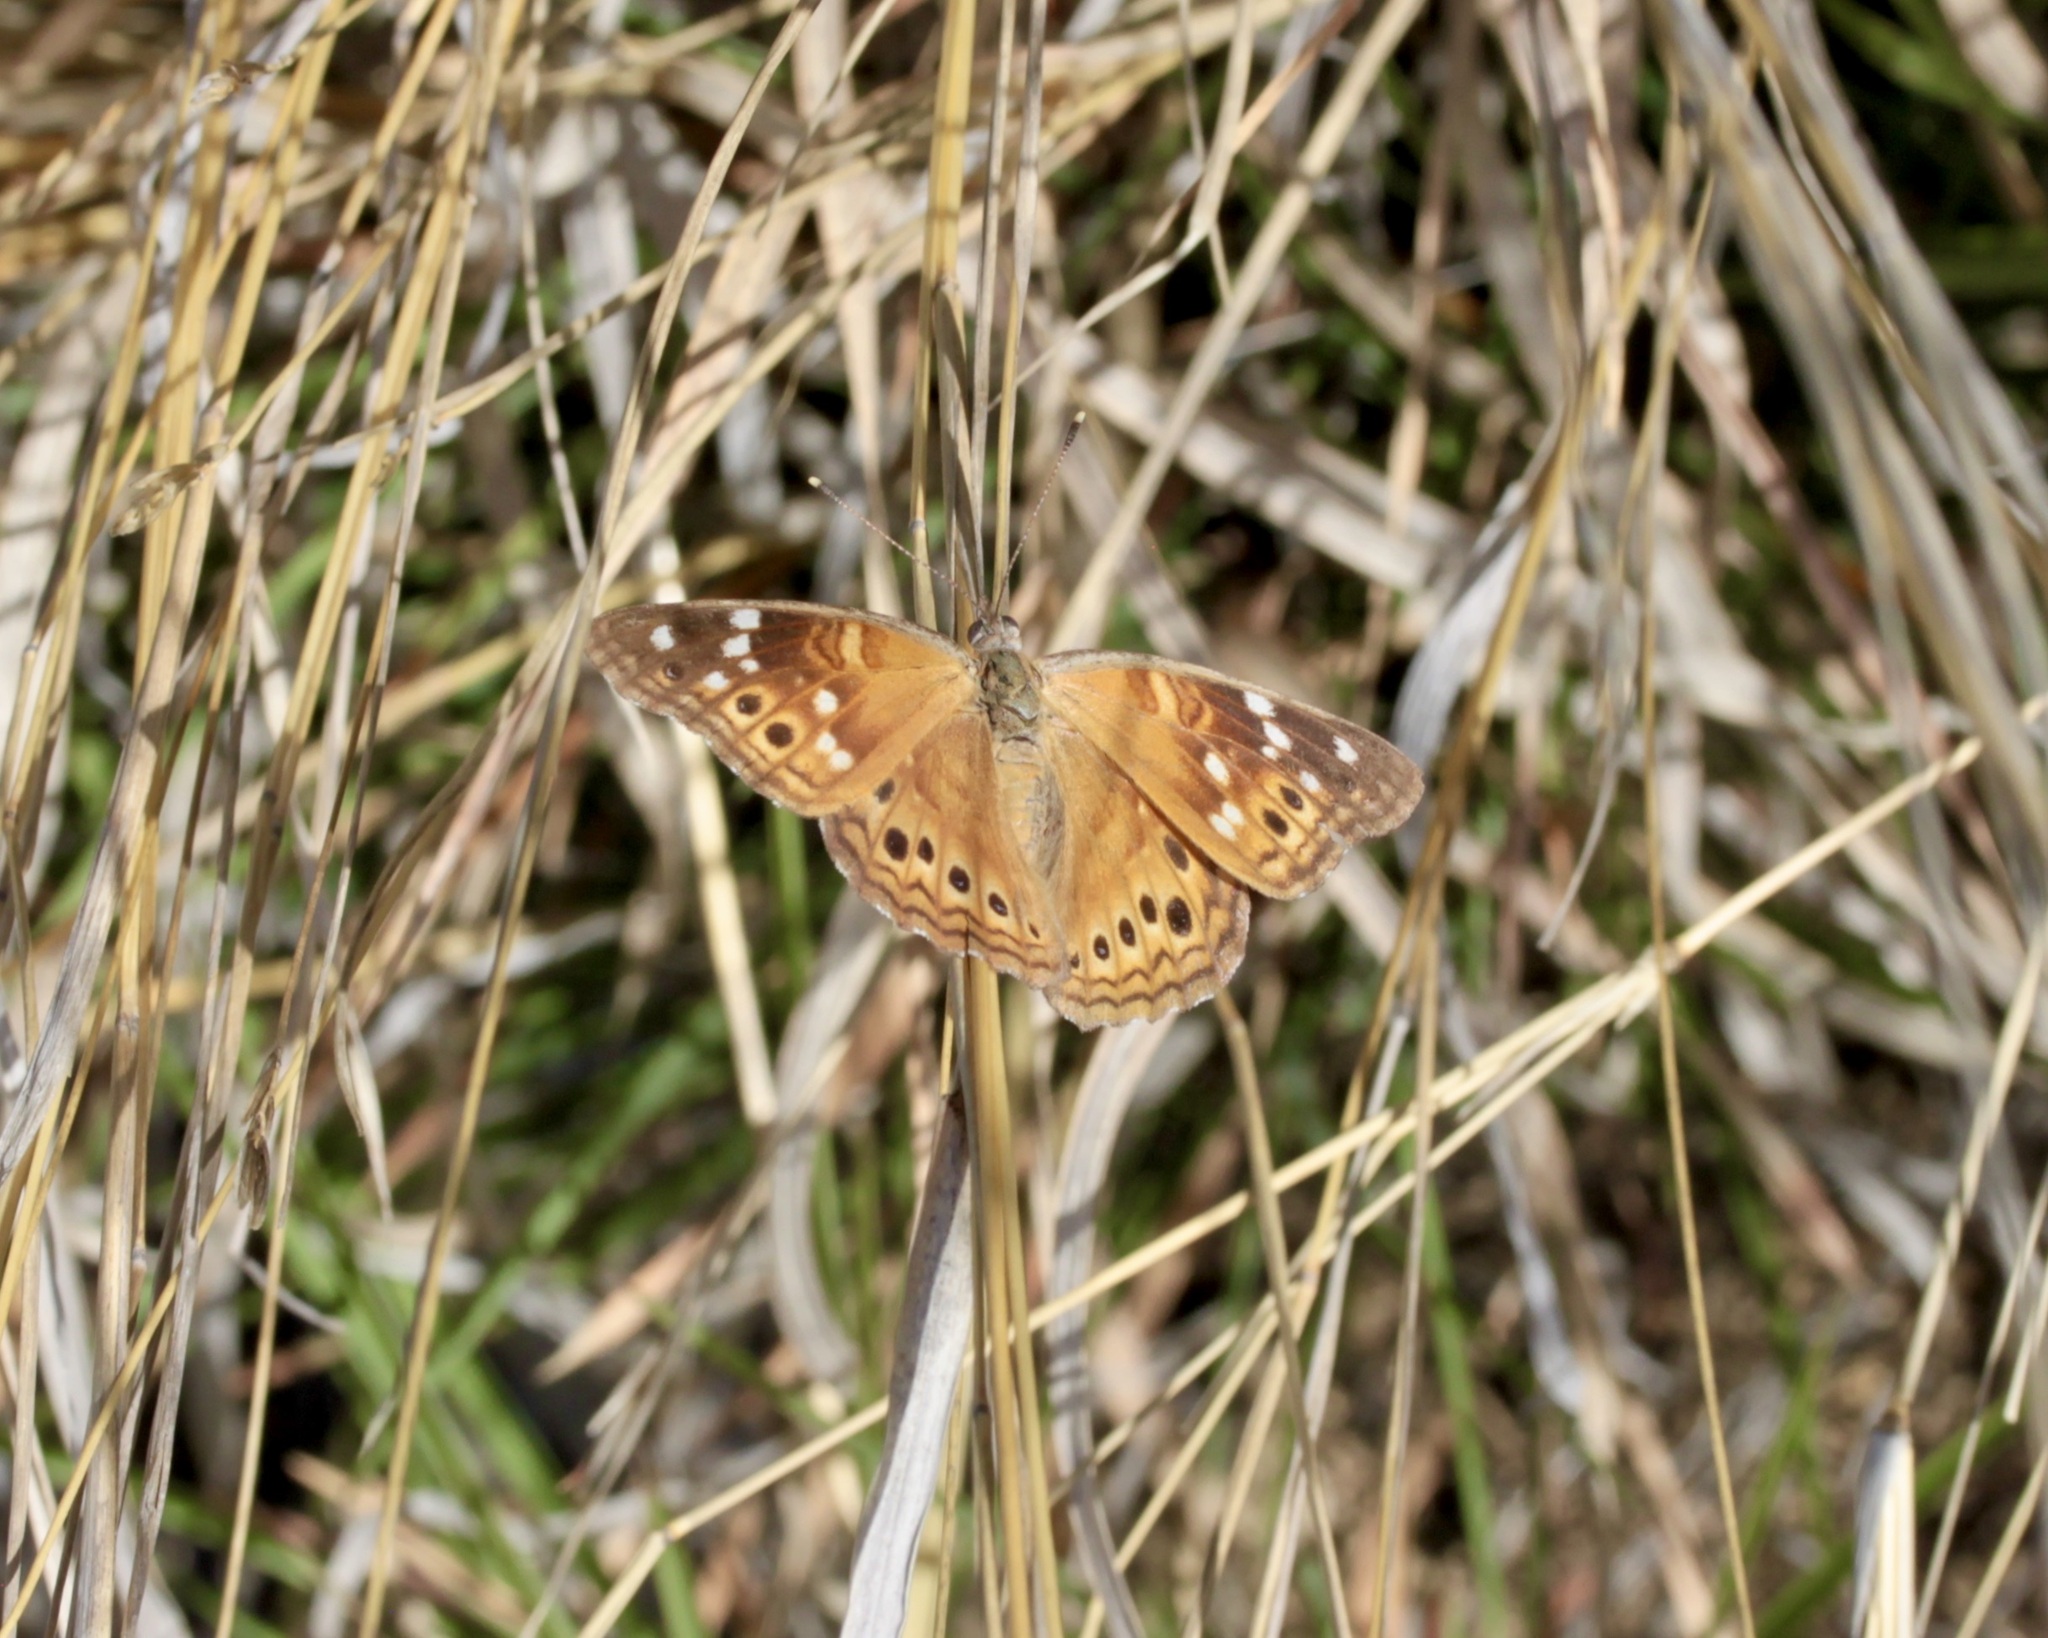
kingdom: Animalia
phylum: Arthropoda
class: Insecta
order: Lepidoptera
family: Nymphalidae
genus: Asterocampa
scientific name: Asterocampa leilia
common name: Empress leilia
